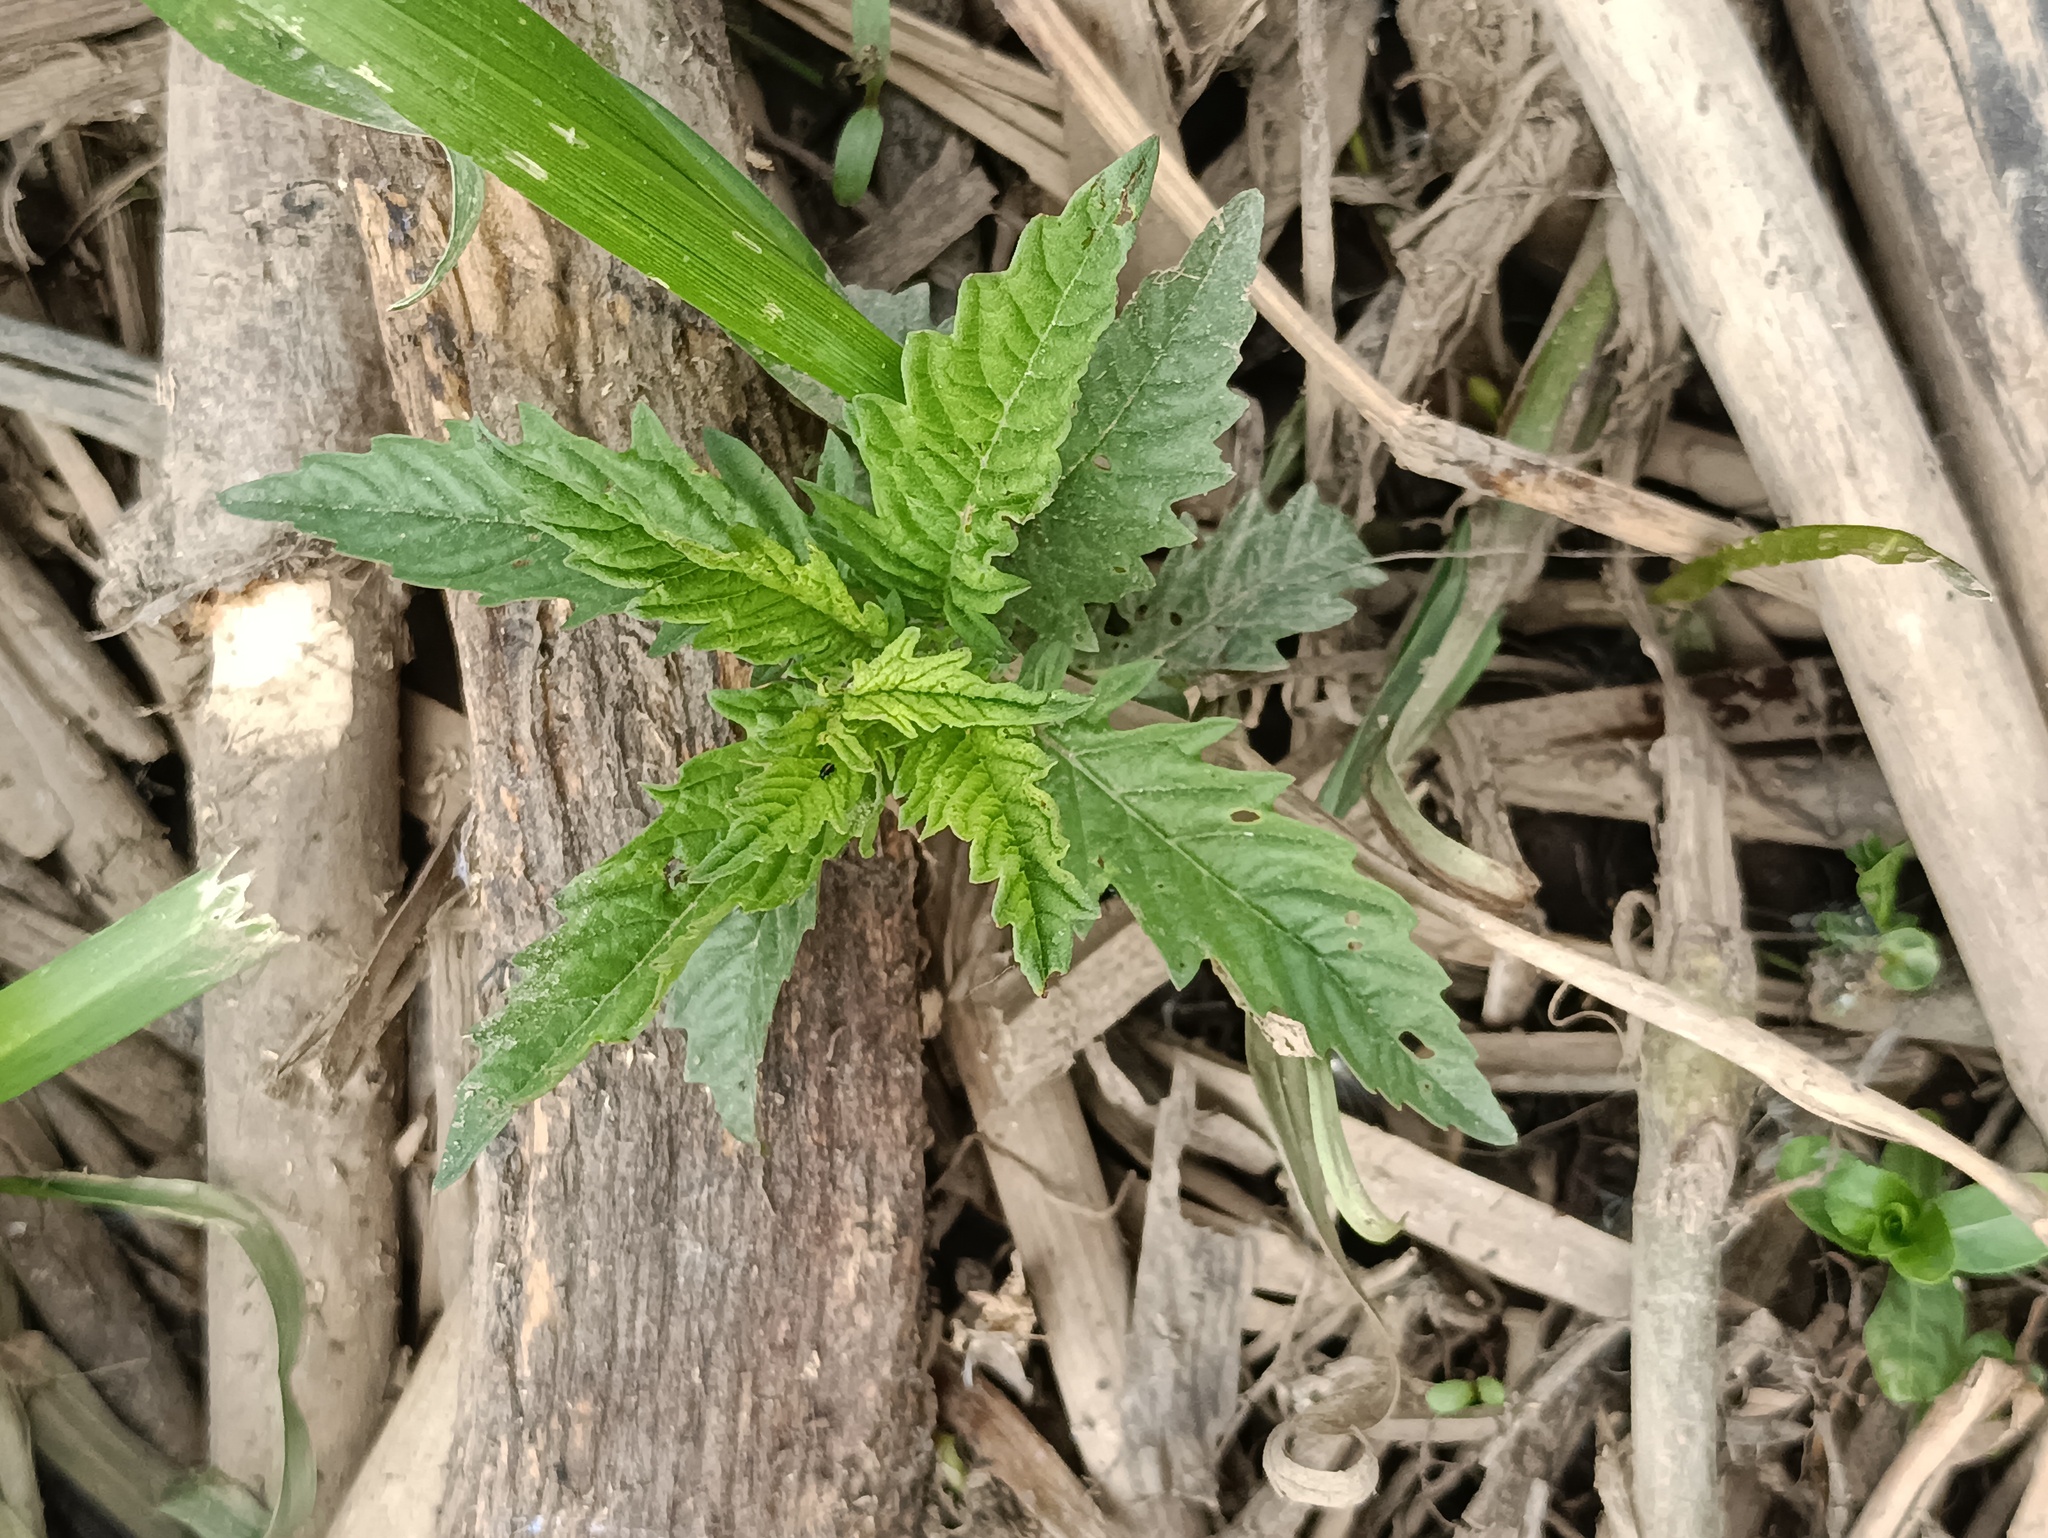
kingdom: Plantae
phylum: Tracheophyta
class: Magnoliopsida
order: Lamiales
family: Lamiaceae
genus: Lycopus
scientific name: Lycopus europaeus
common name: European bugleweed
